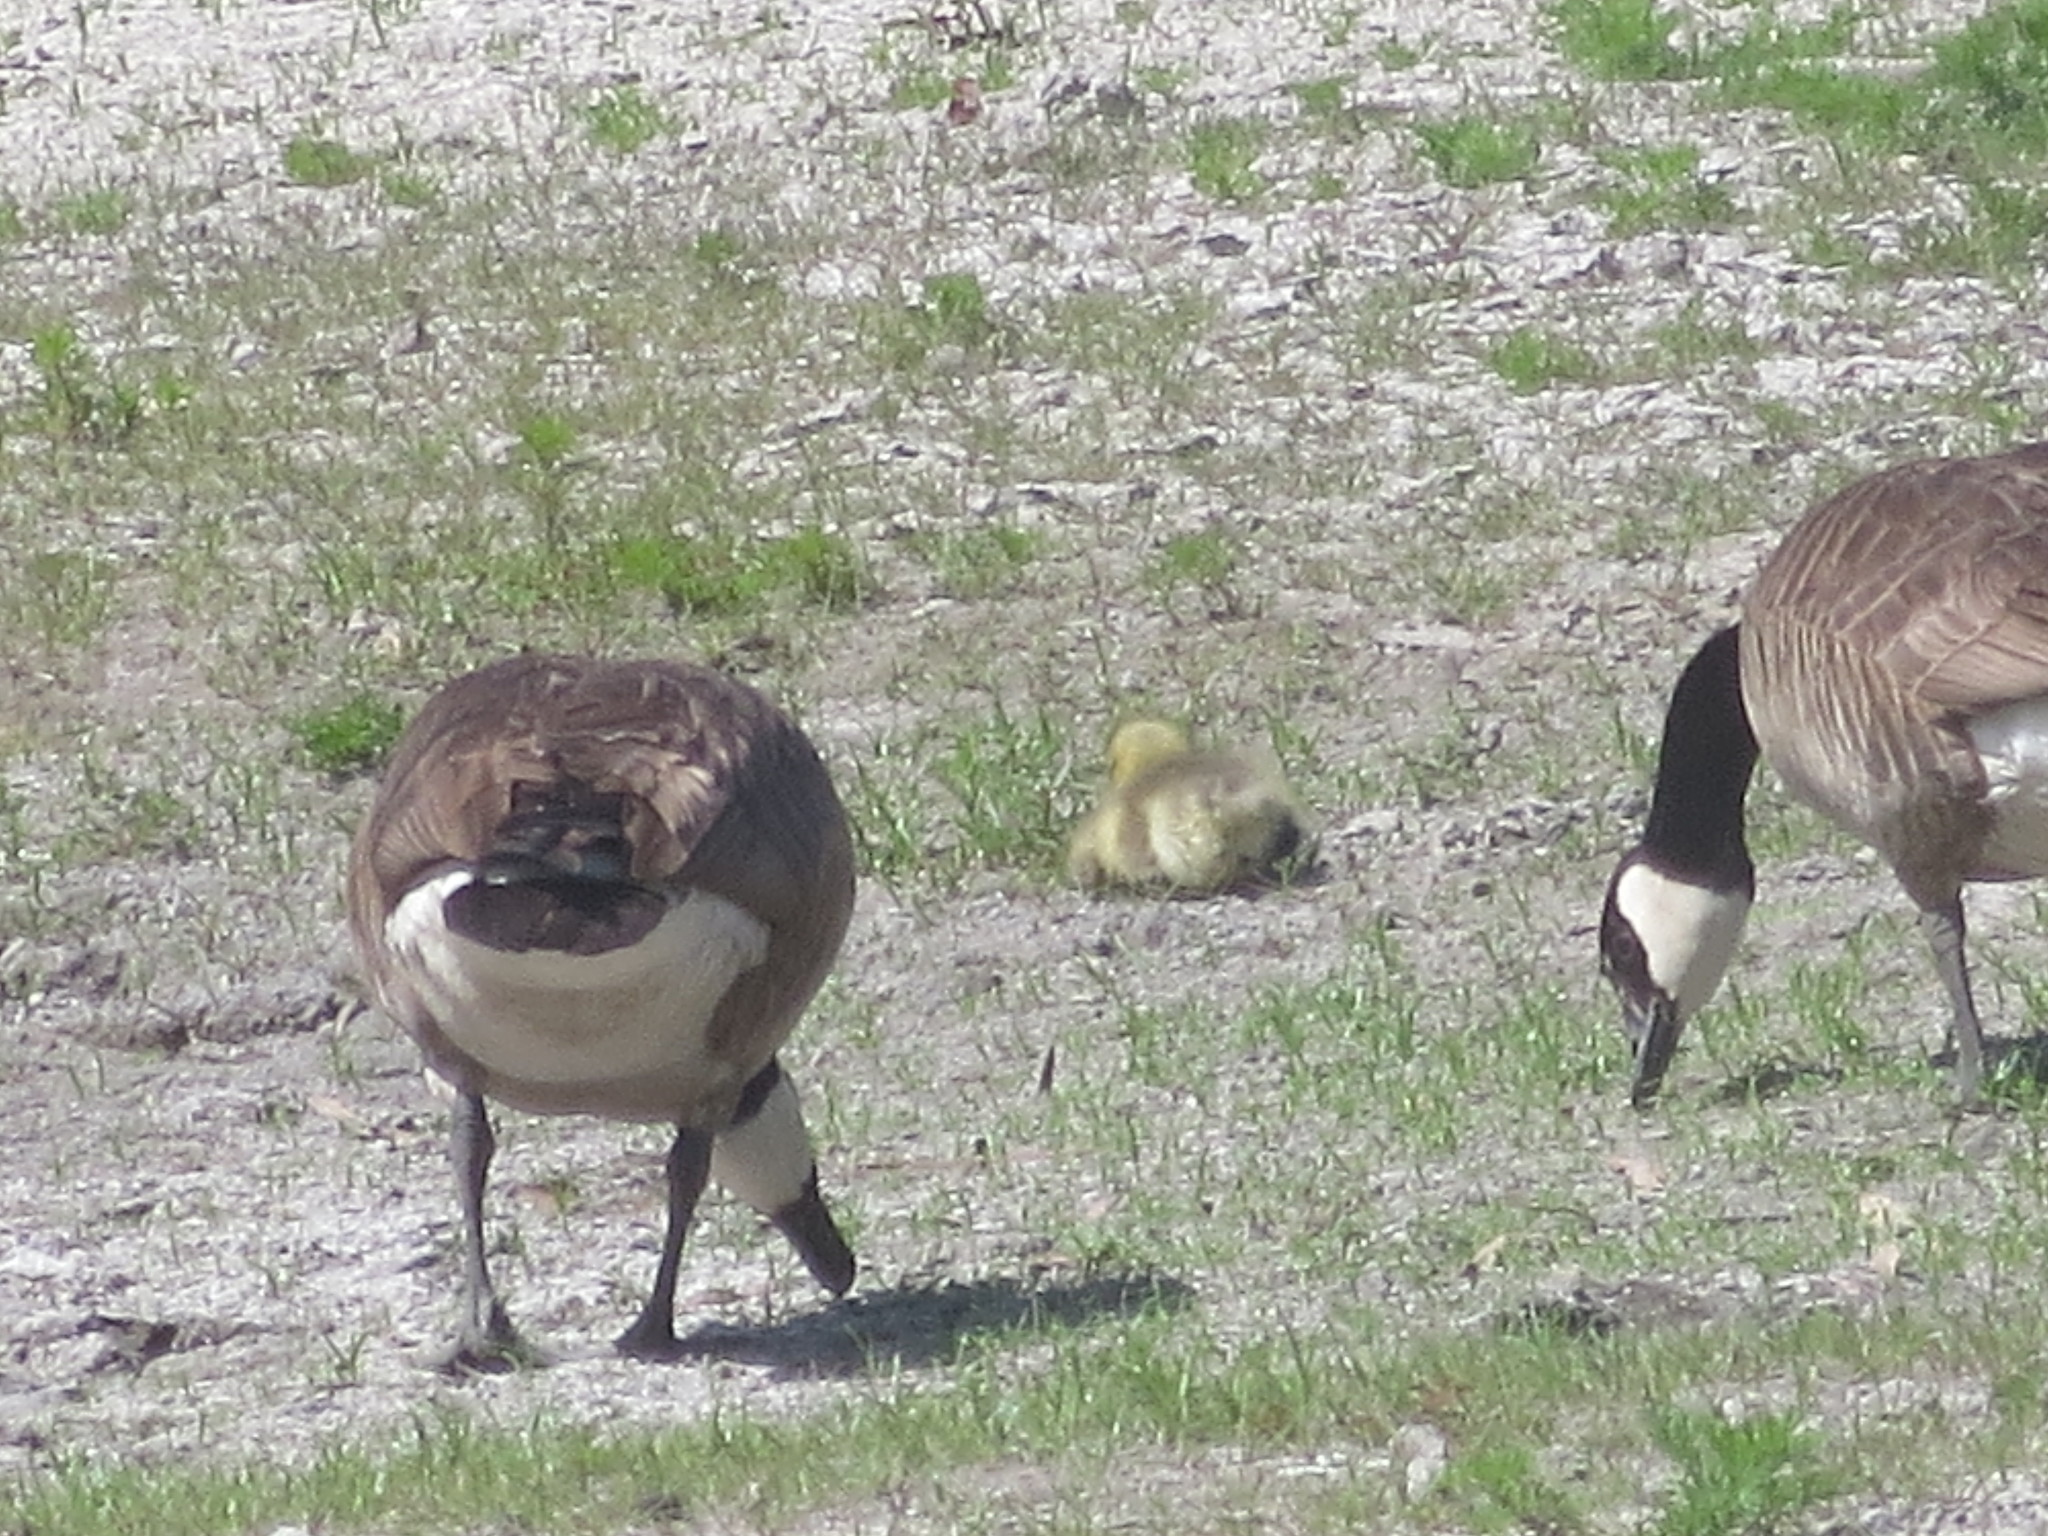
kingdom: Animalia
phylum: Chordata
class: Aves
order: Anseriformes
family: Anatidae
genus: Branta
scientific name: Branta canadensis
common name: Canada goose
